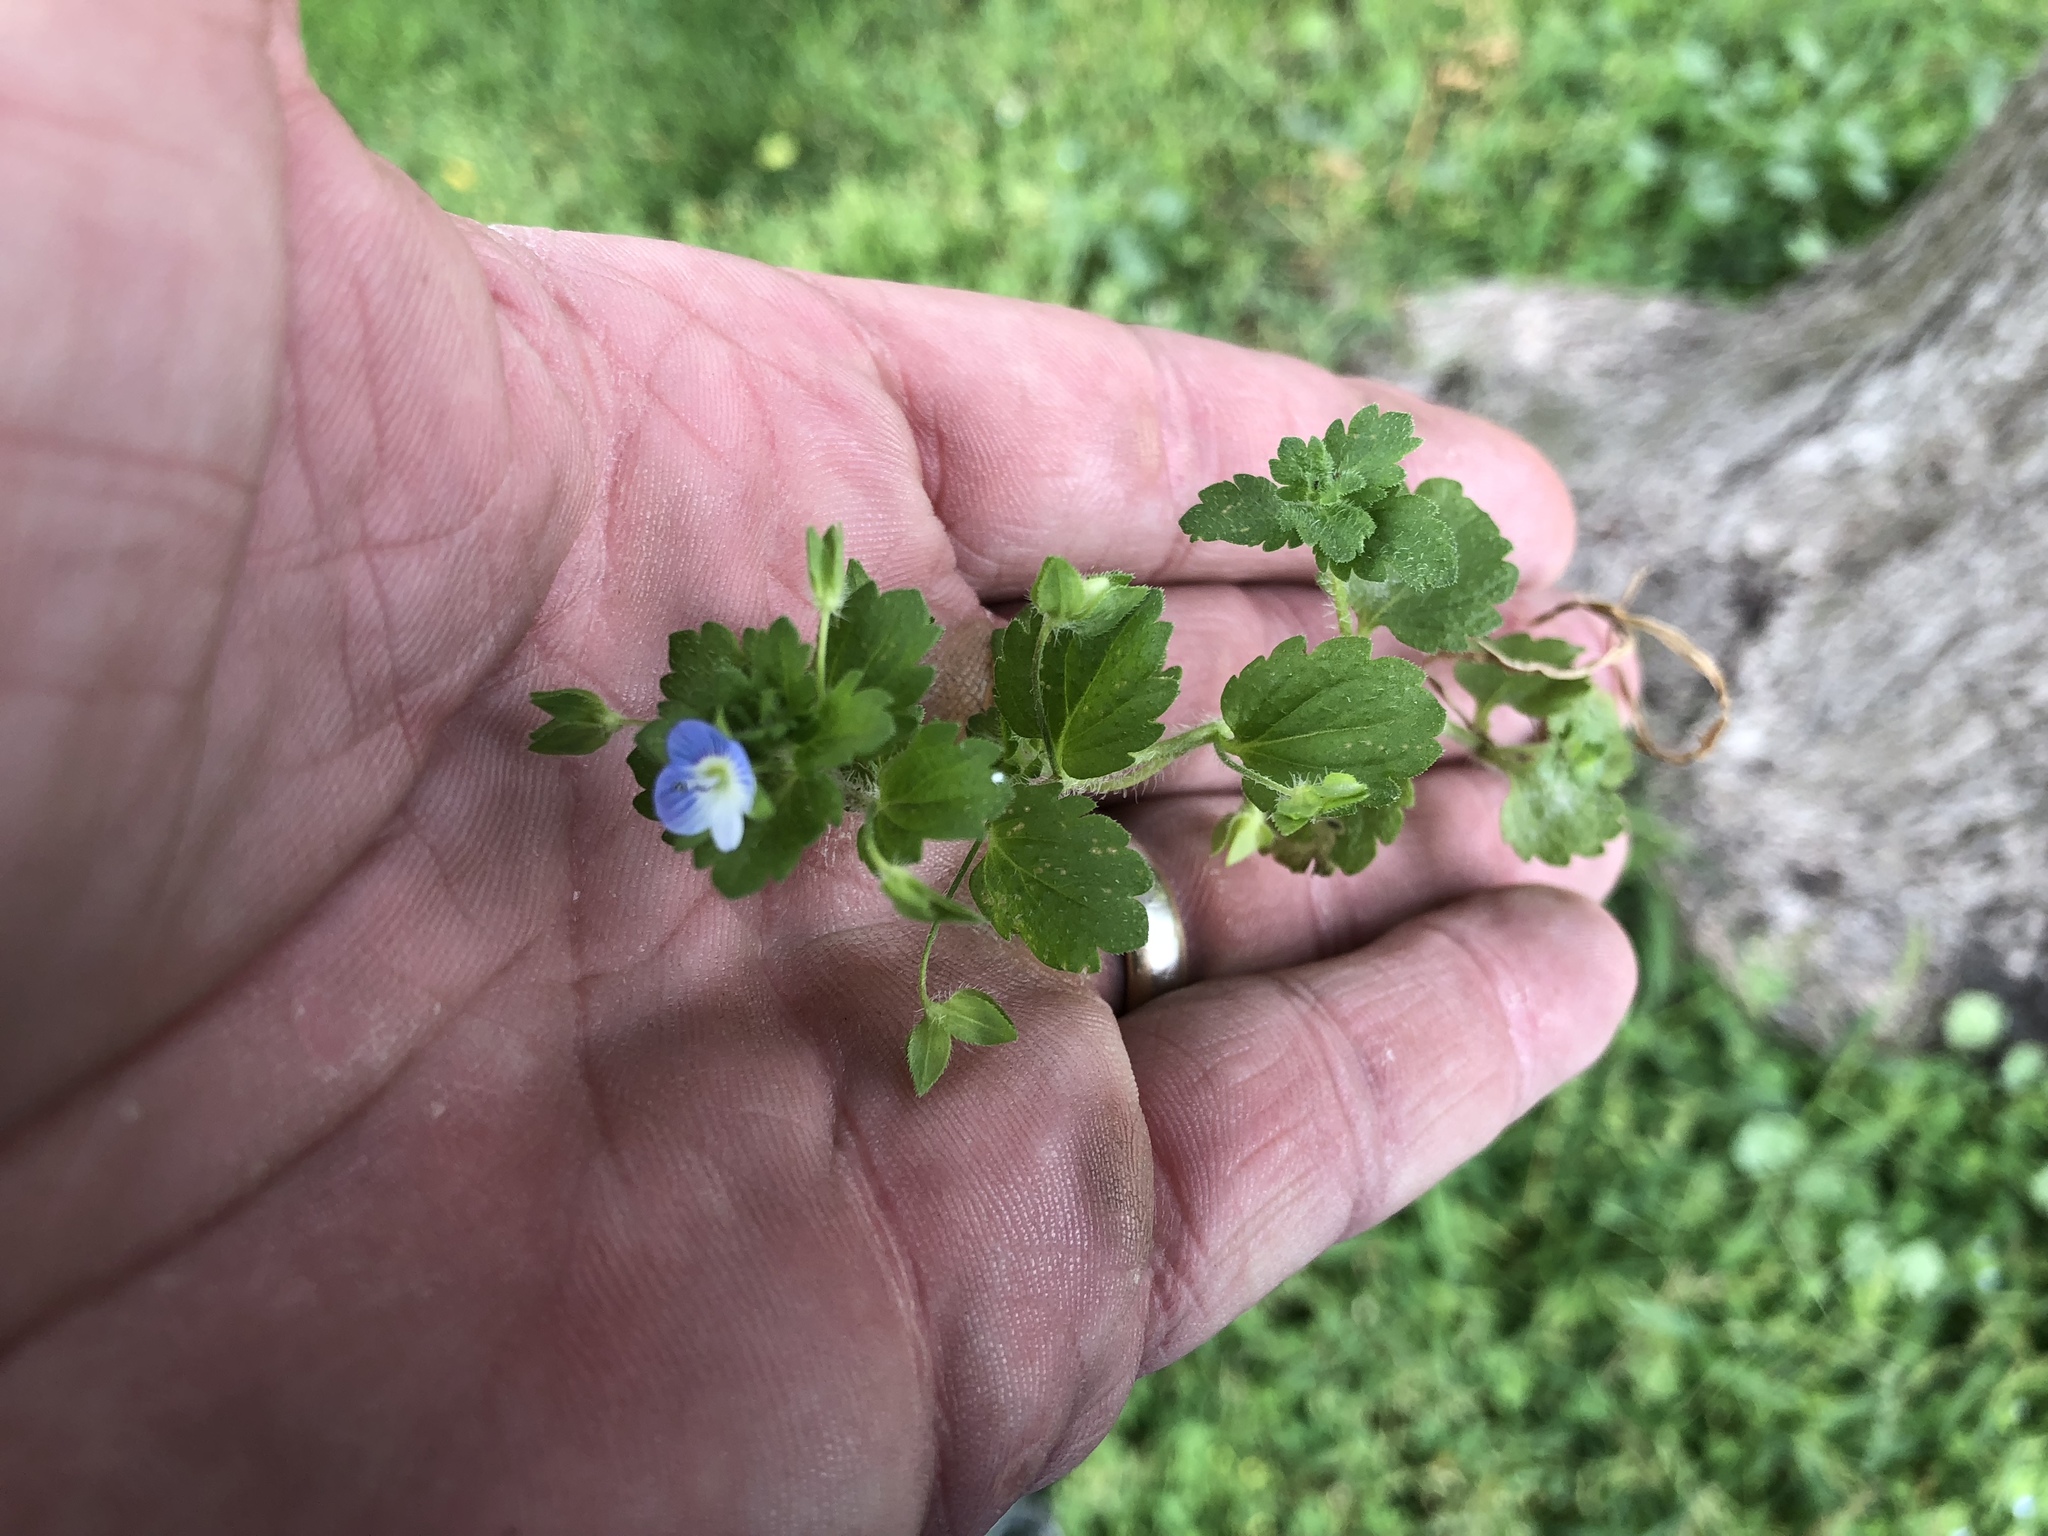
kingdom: Plantae
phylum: Tracheophyta
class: Magnoliopsida
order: Lamiales
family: Plantaginaceae
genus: Veronica
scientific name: Veronica persica
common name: Common field-speedwell
